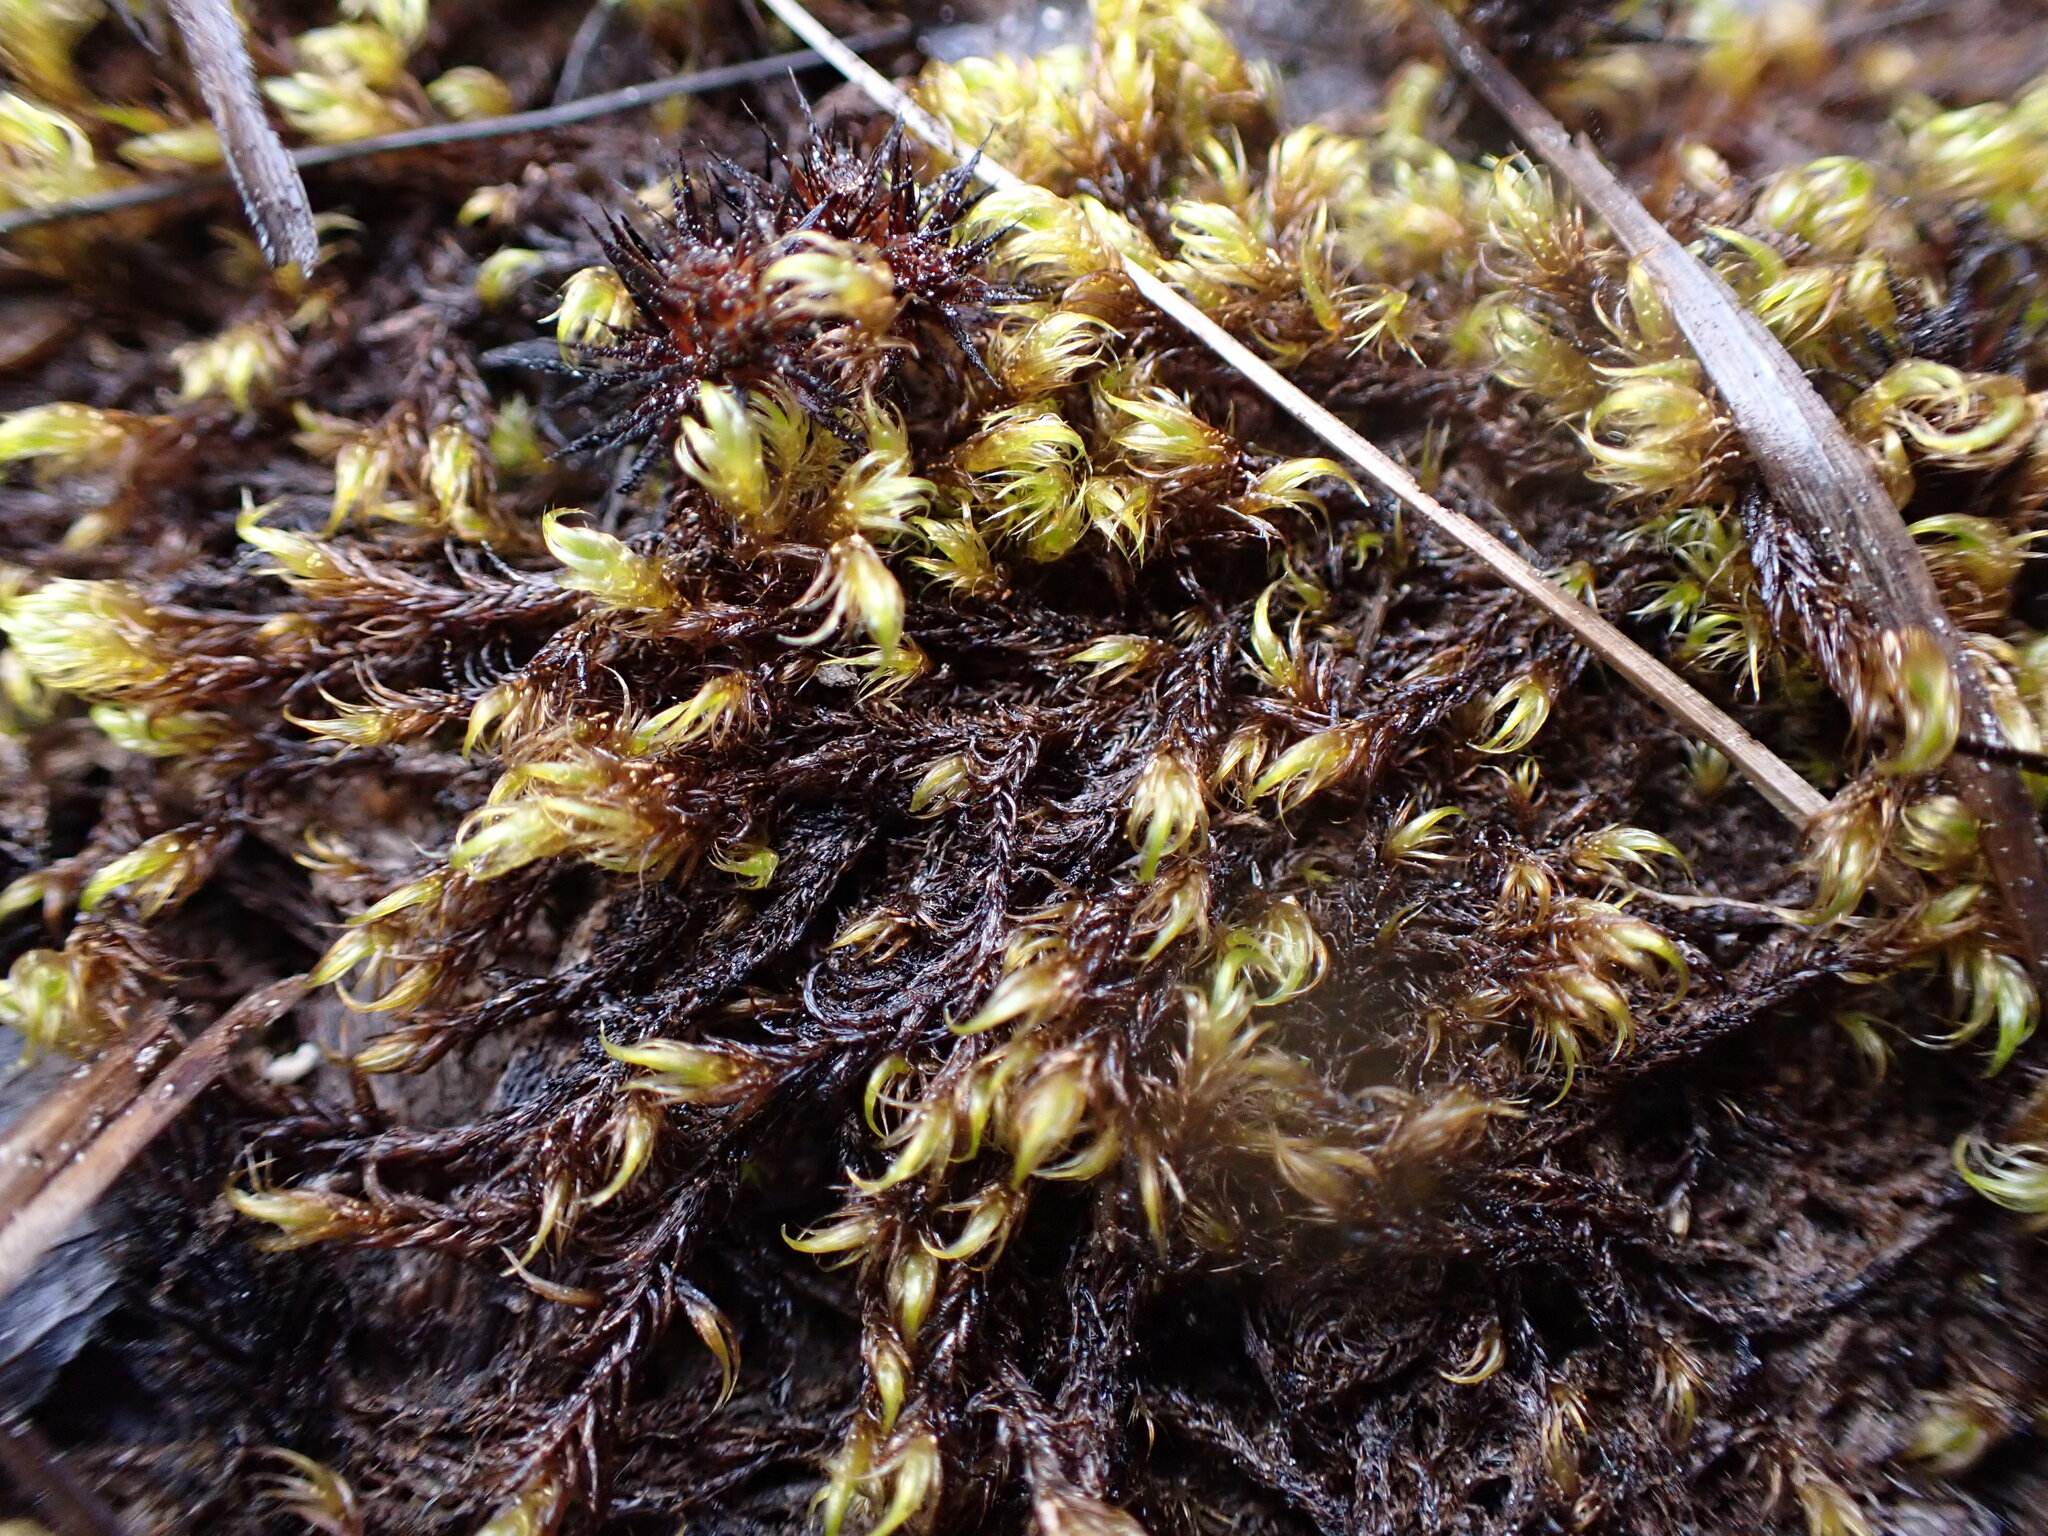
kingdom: Plantae
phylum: Bryophyta
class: Bryopsida
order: Hypnales
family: Scorpidiaceae
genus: Scorpidium
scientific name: Scorpidium revolvens
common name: Rusty hook moss
